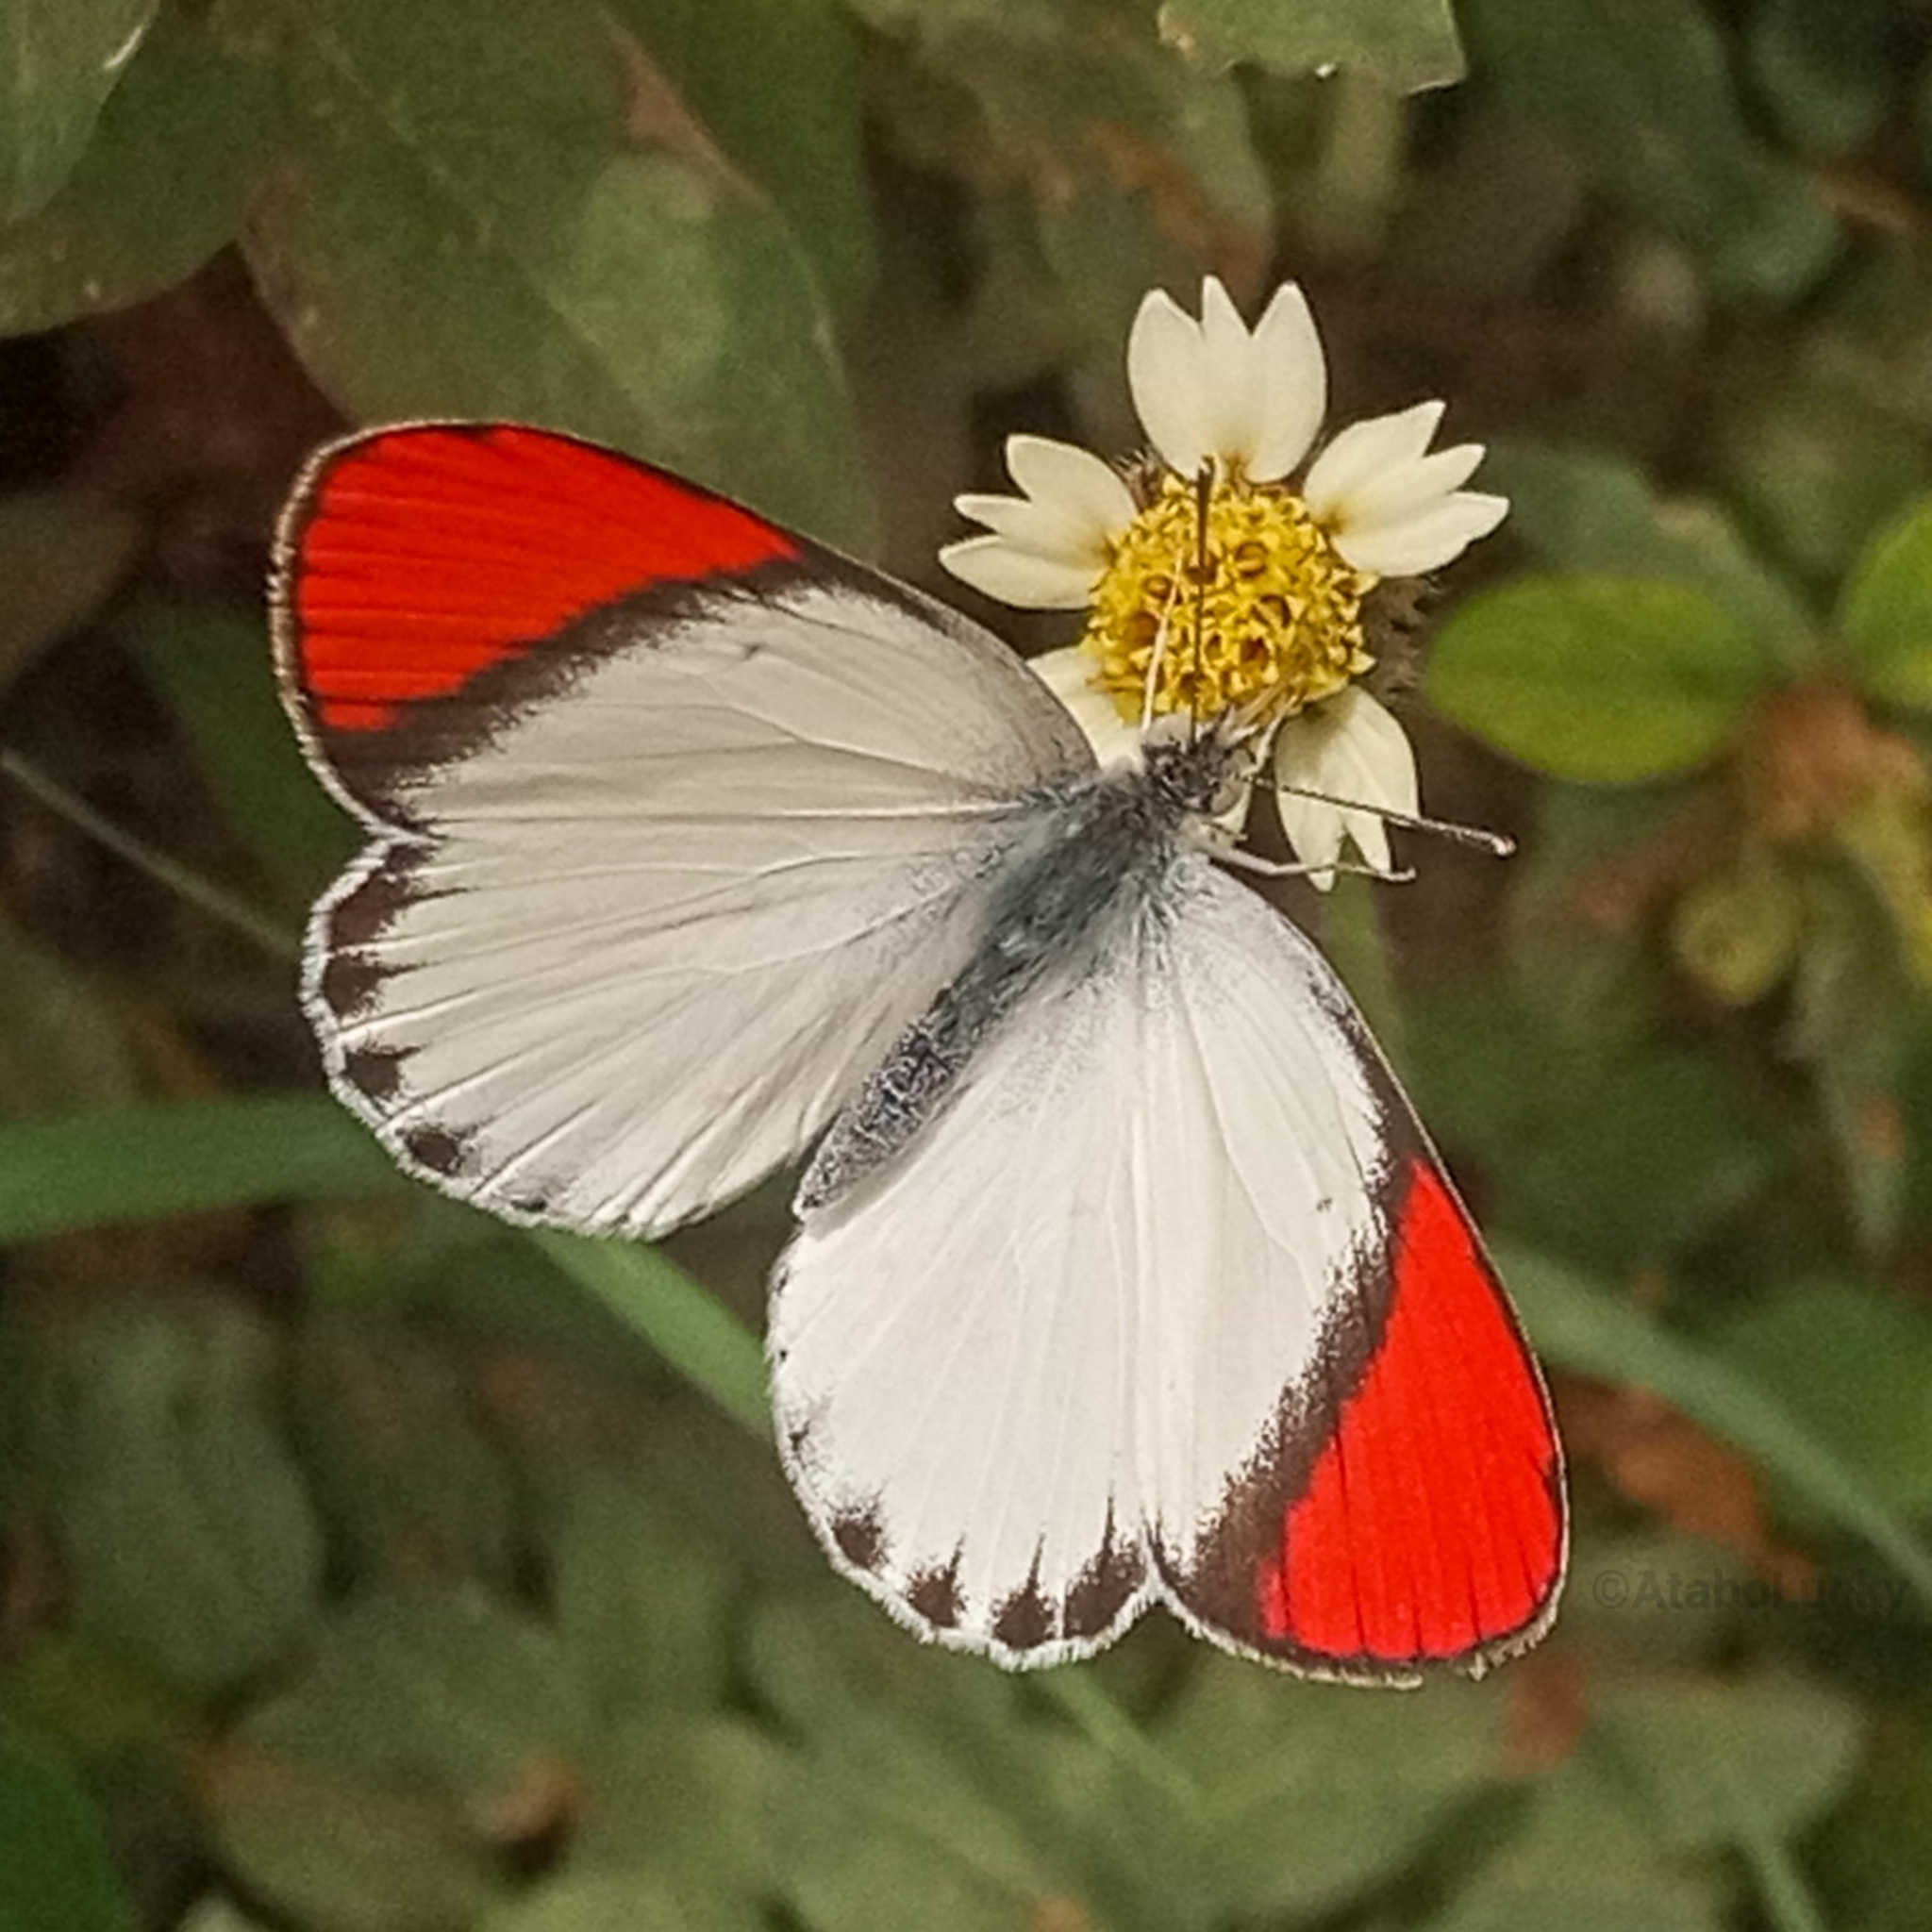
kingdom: Animalia
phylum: Arthropoda
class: Insecta
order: Lepidoptera
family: Pieridae
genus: Colotis
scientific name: Colotis danae
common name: Crimson tip
